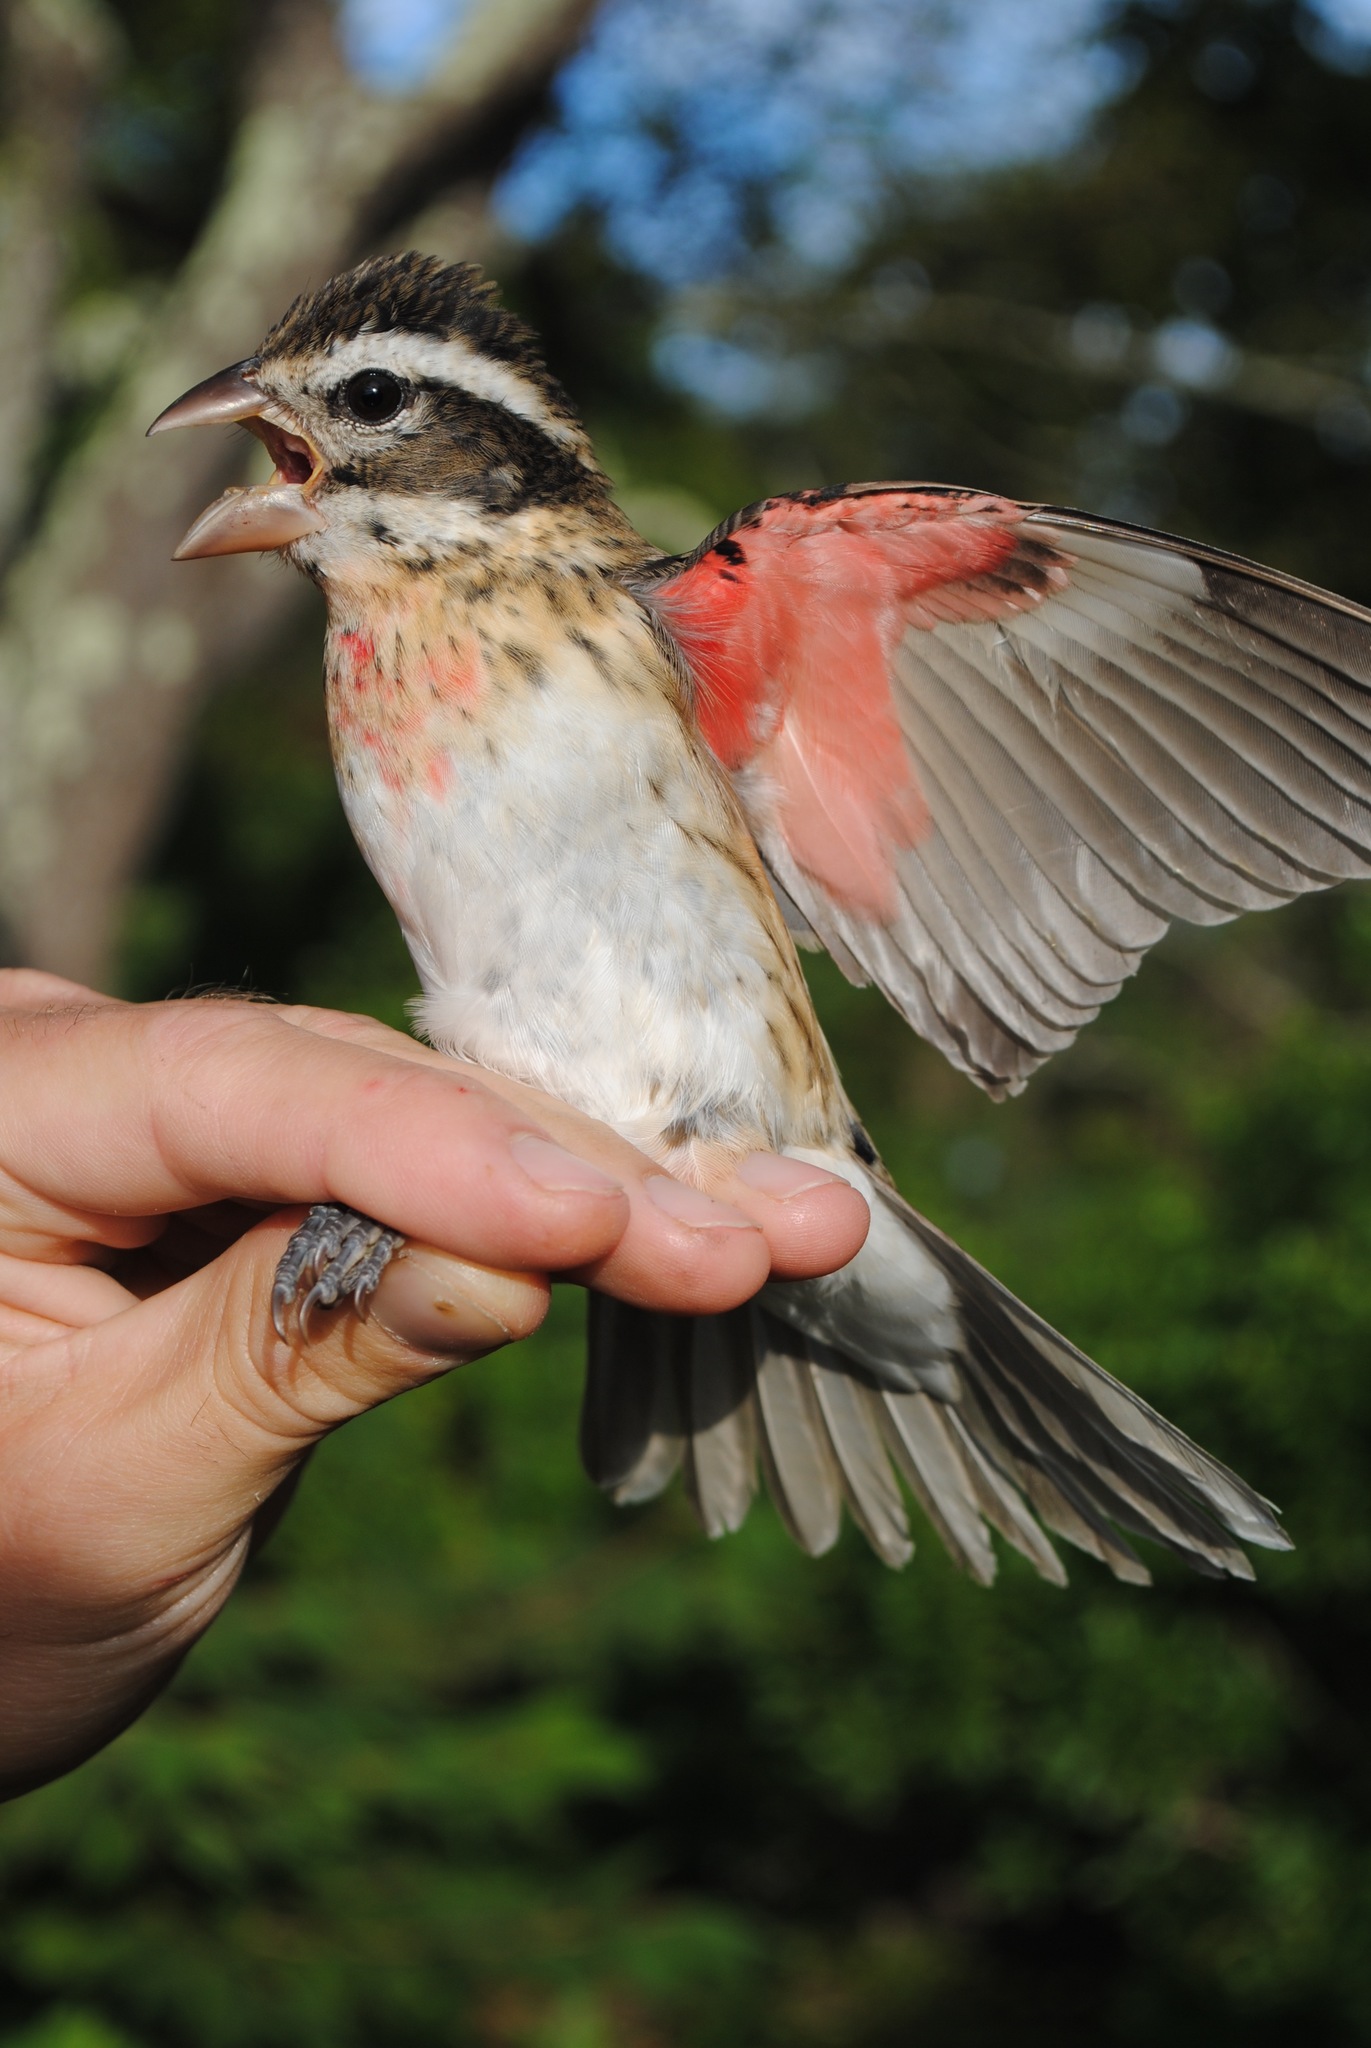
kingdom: Animalia
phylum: Chordata
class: Aves
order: Passeriformes
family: Cardinalidae
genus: Pheucticus
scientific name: Pheucticus ludovicianus
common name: Rose-breasted grosbeak
